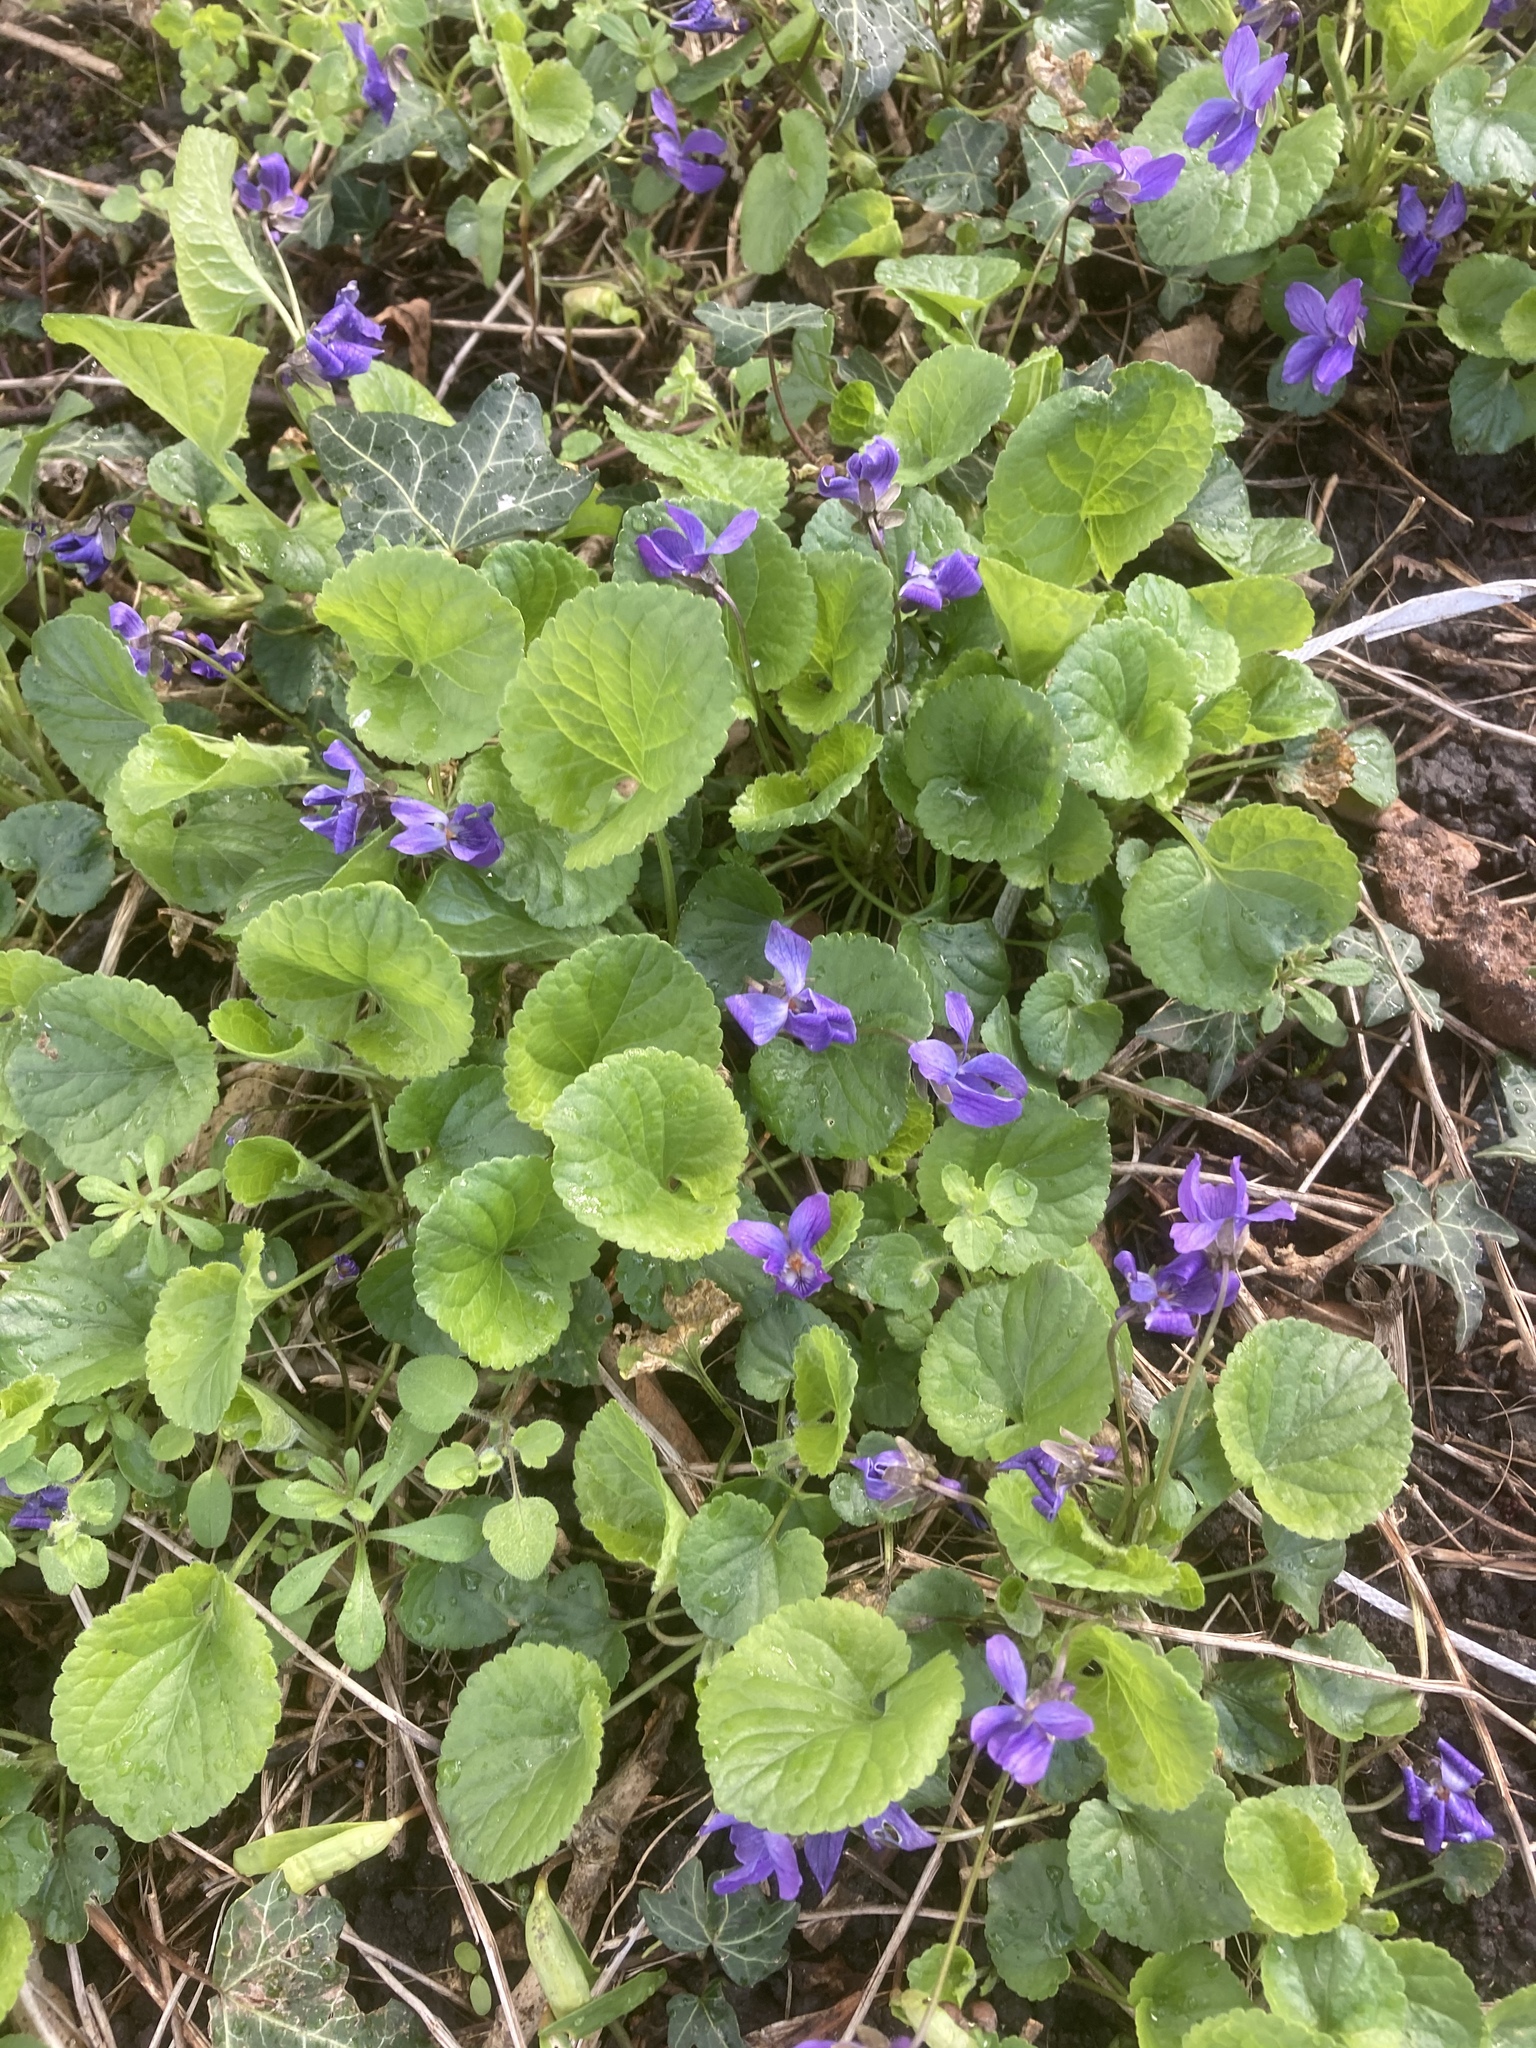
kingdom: Plantae
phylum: Tracheophyta
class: Magnoliopsida
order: Malpighiales
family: Violaceae
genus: Viola
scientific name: Viola odorata
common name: Sweet violet
